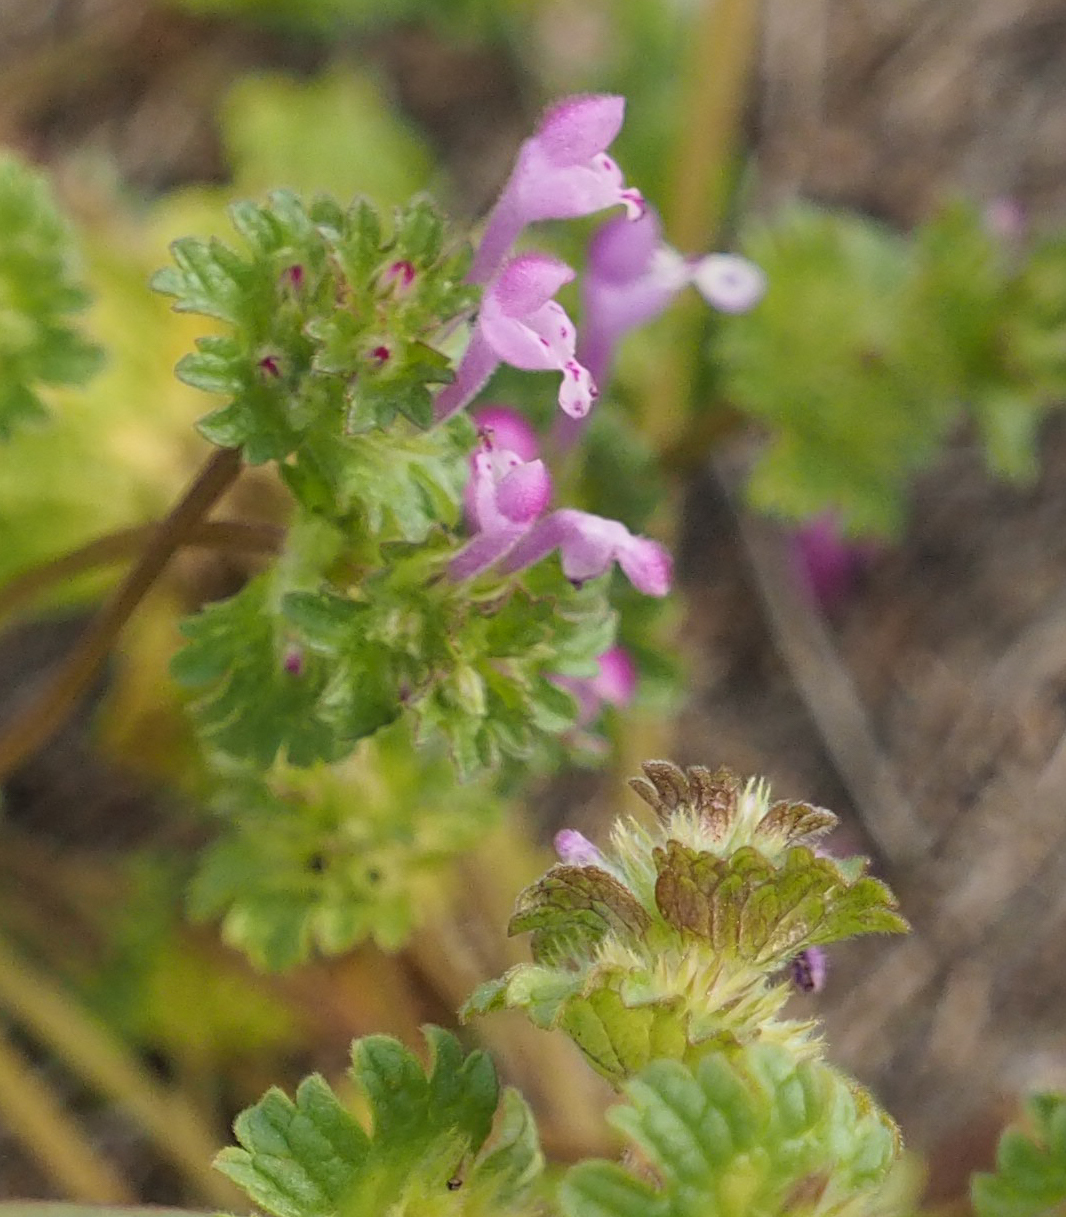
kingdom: Plantae
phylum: Tracheophyta
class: Magnoliopsida
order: Lamiales
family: Lamiaceae
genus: Lamium
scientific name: Lamium amplexicaule
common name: Henbit dead-nettle
